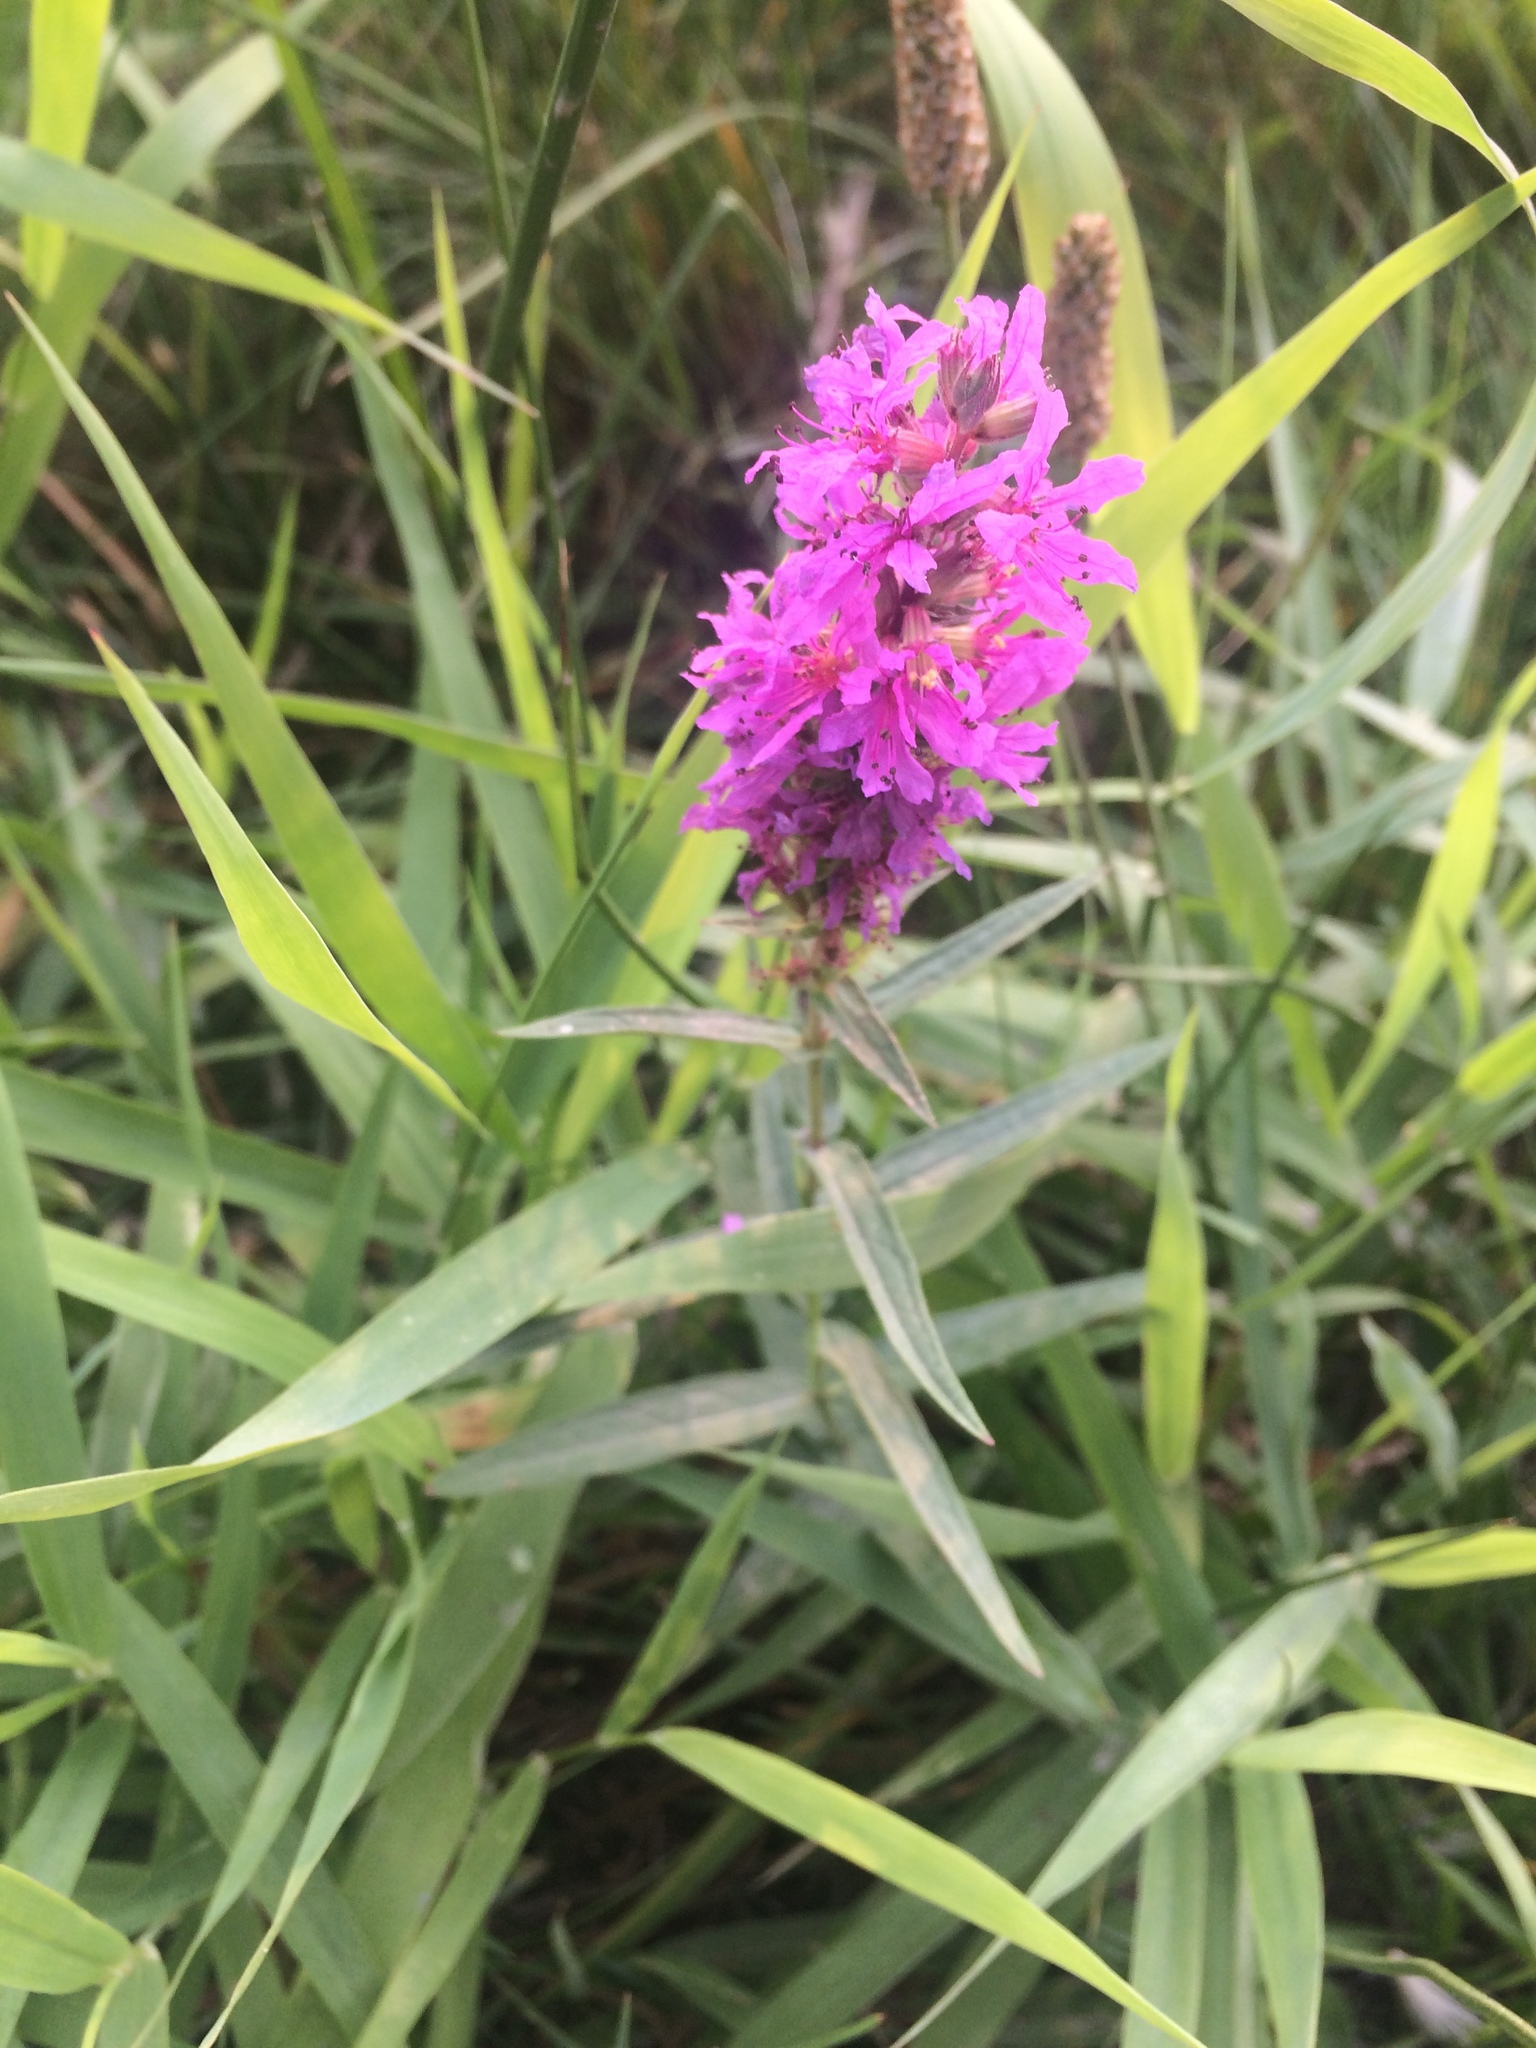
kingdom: Plantae
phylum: Tracheophyta
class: Magnoliopsida
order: Myrtales
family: Lythraceae
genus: Lythrum
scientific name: Lythrum salicaria
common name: Purple loosestrife
